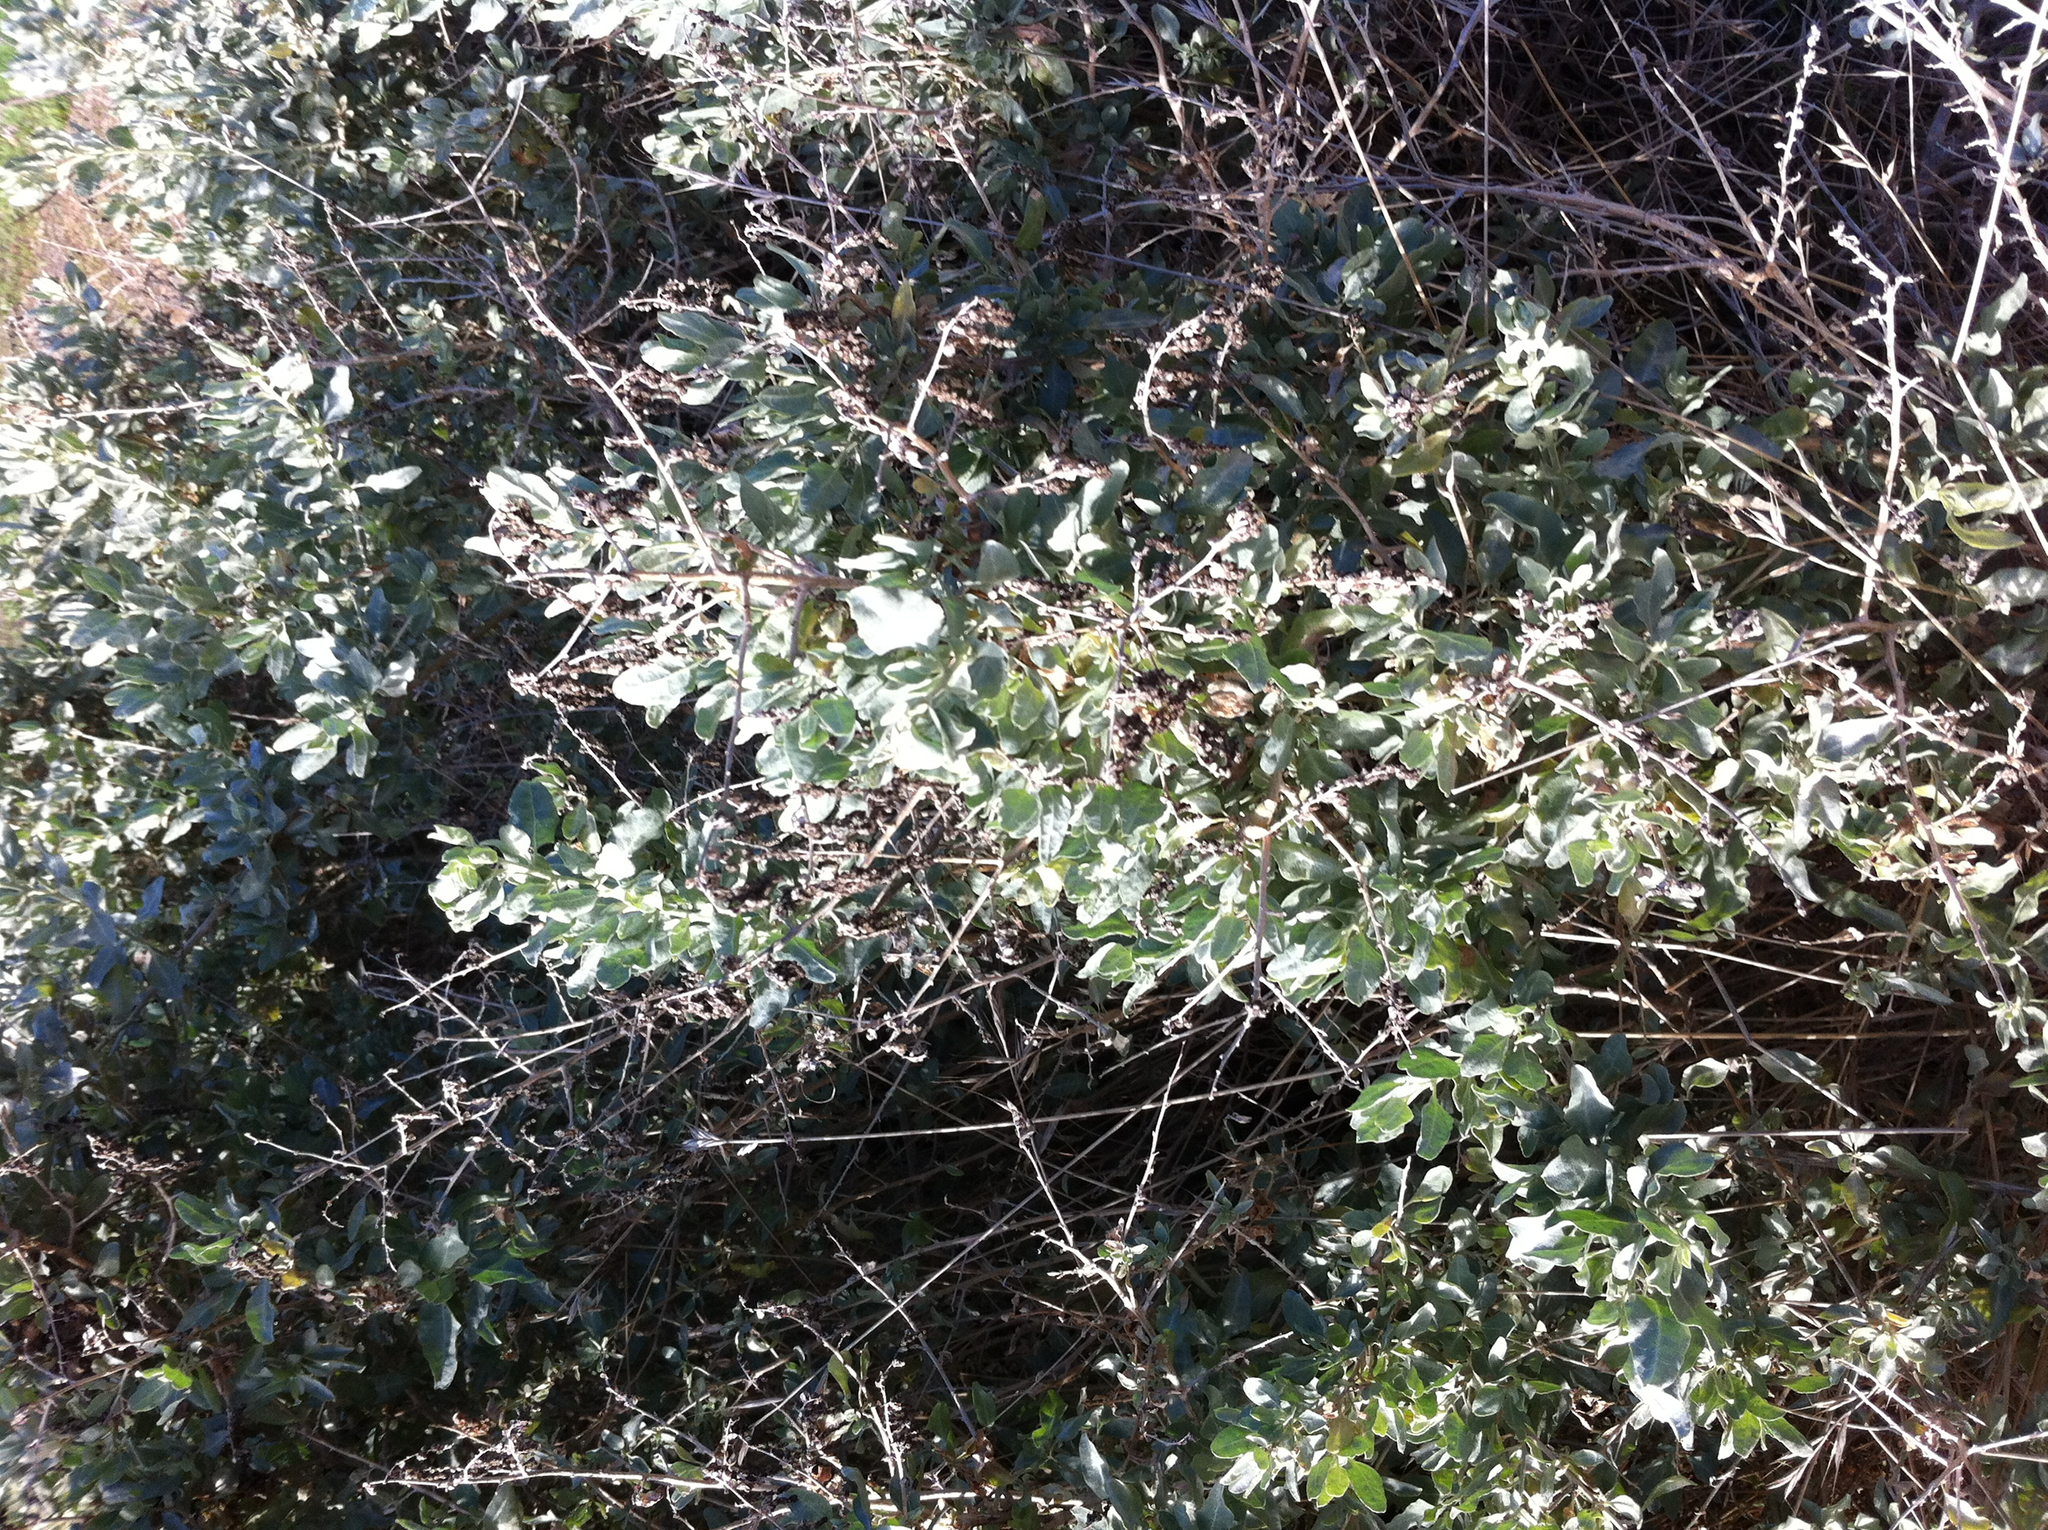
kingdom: Plantae
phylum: Tracheophyta
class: Magnoliopsida
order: Caryophyllales
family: Amaranthaceae
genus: Atriplex
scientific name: Atriplex lentiformis
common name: Big saltbush
